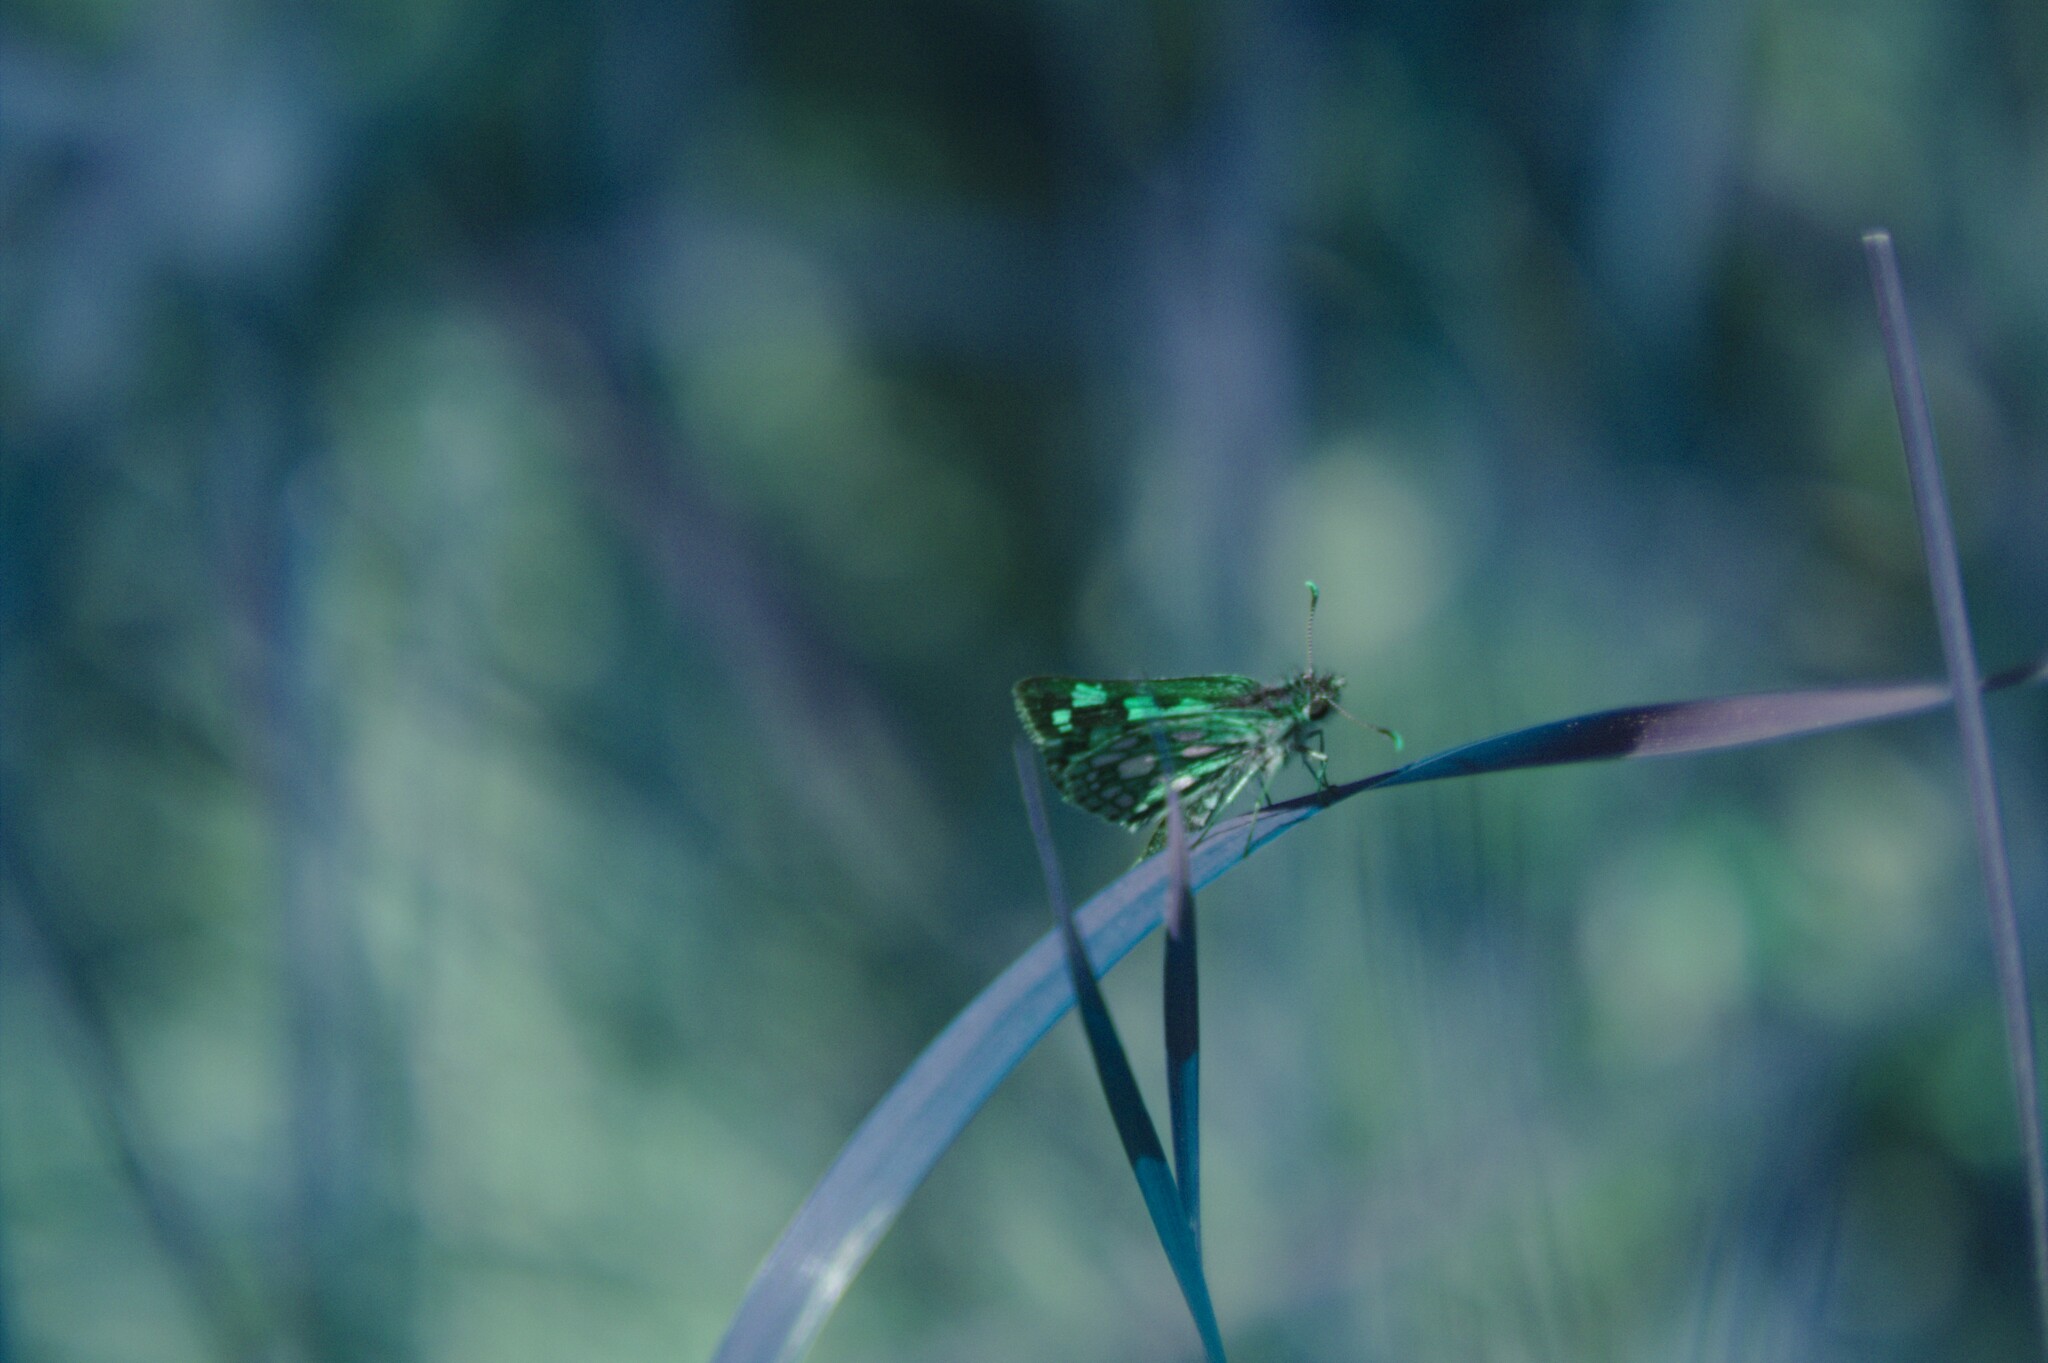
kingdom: Animalia
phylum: Arthropoda
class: Insecta
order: Lepidoptera
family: Hesperiidae
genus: Carterocephalus
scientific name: Carterocephalus mandan
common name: Arctic skipperling
